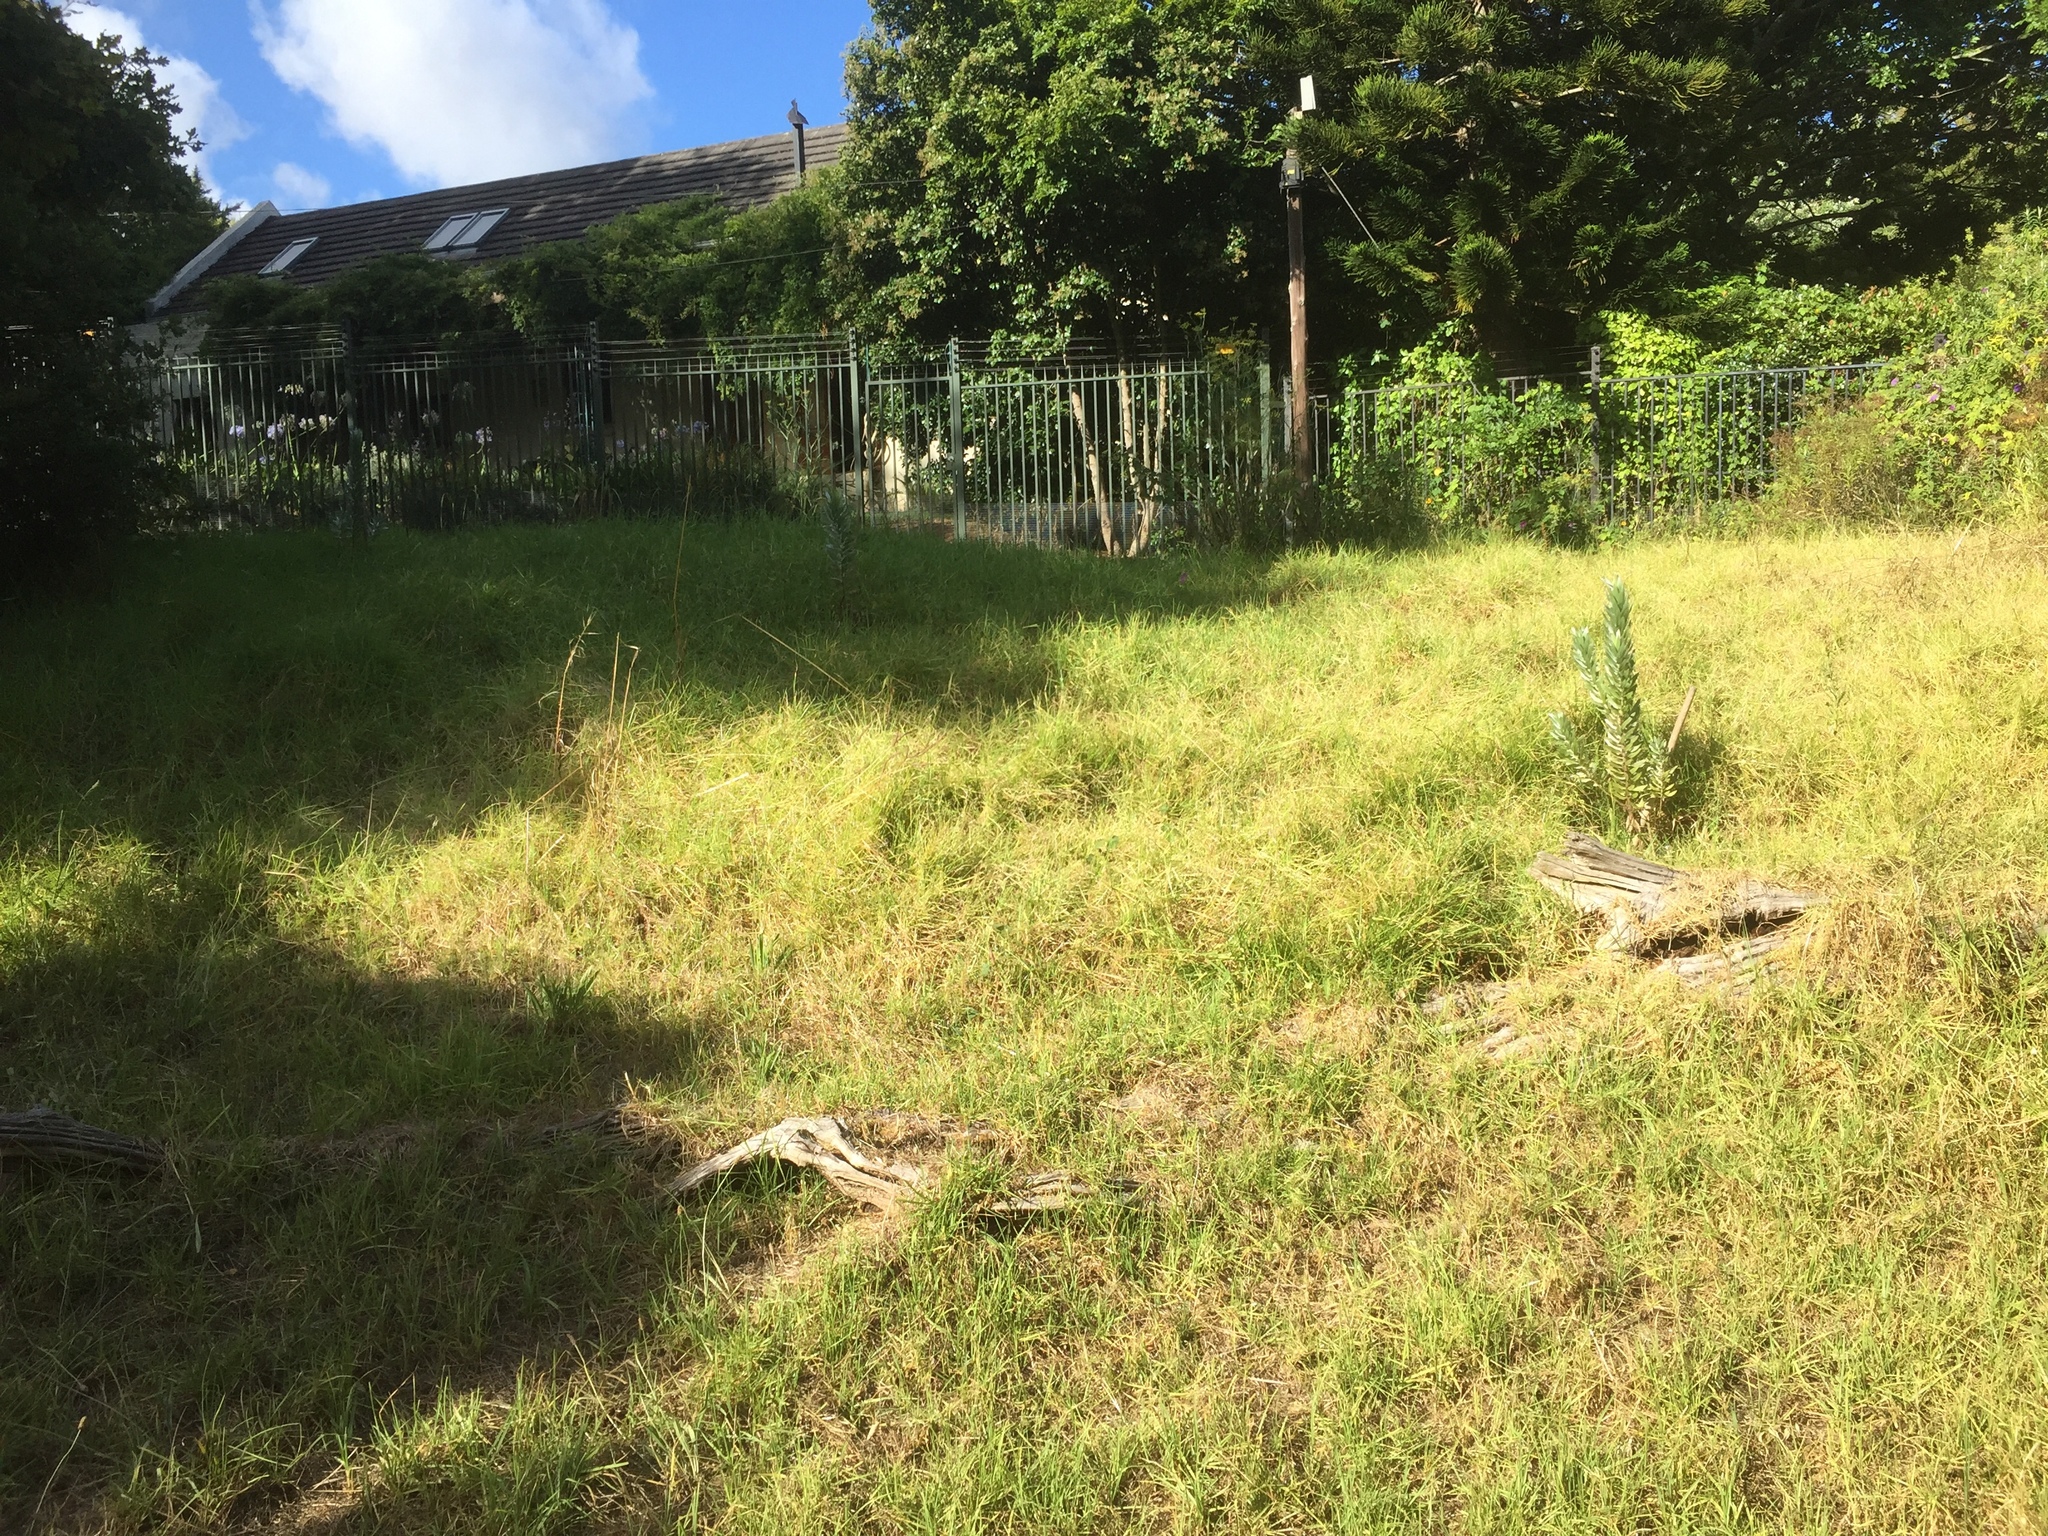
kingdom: Plantae
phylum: Tracheophyta
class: Magnoliopsida
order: Proteales
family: Proteaceae
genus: Leucadendron
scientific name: Leucadendron argenteum
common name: Cape silver tree
